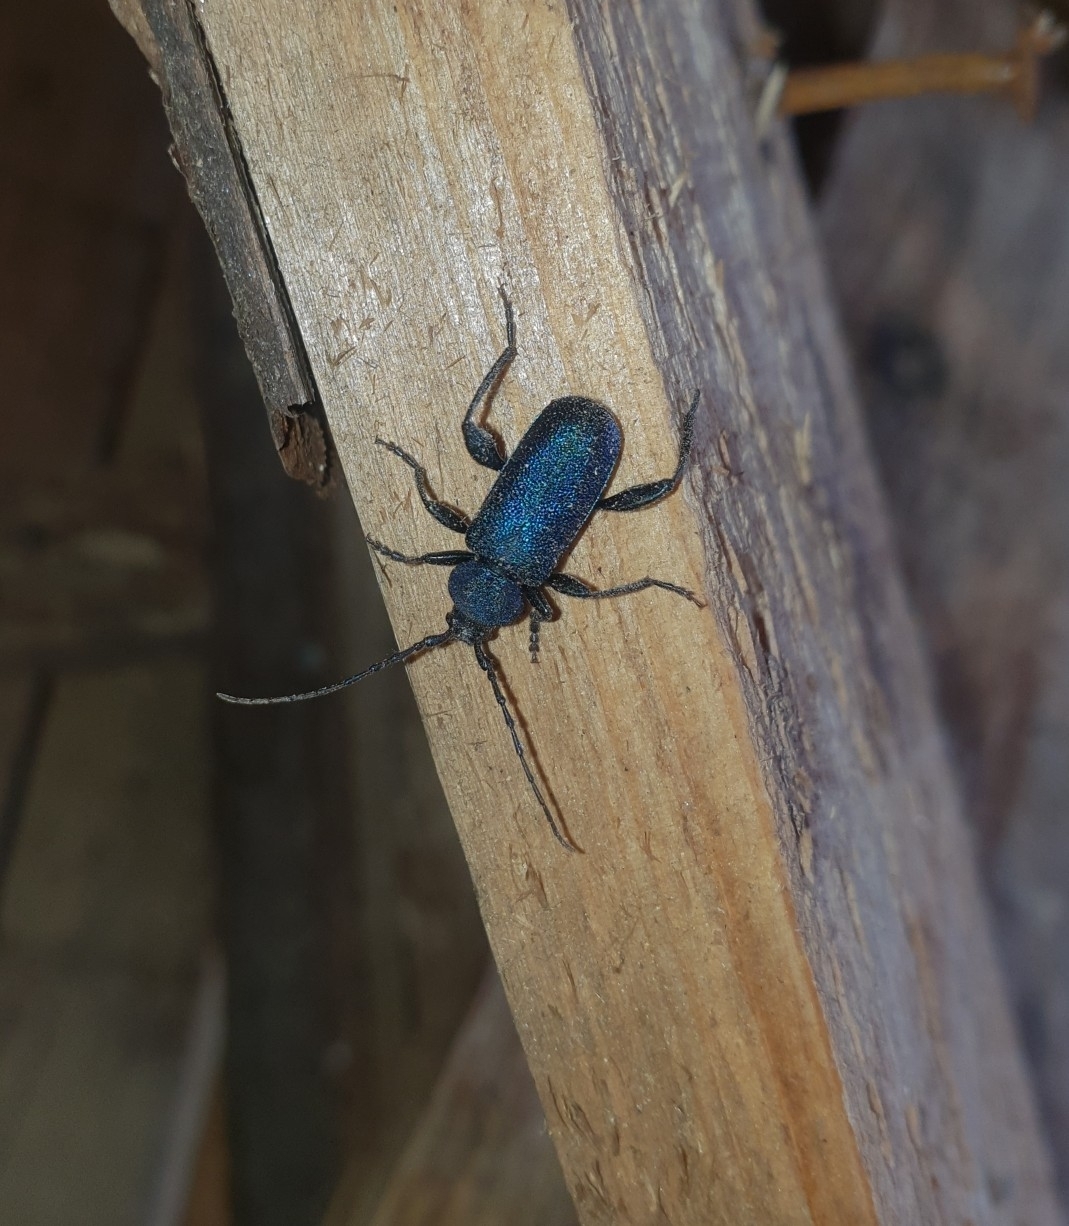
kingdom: Animalia
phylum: Arthropoda
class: Insecta
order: Coleoptera
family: Cerambycidae
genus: Callidium
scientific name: Callidium violaceum
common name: Violet tanbark beetle
